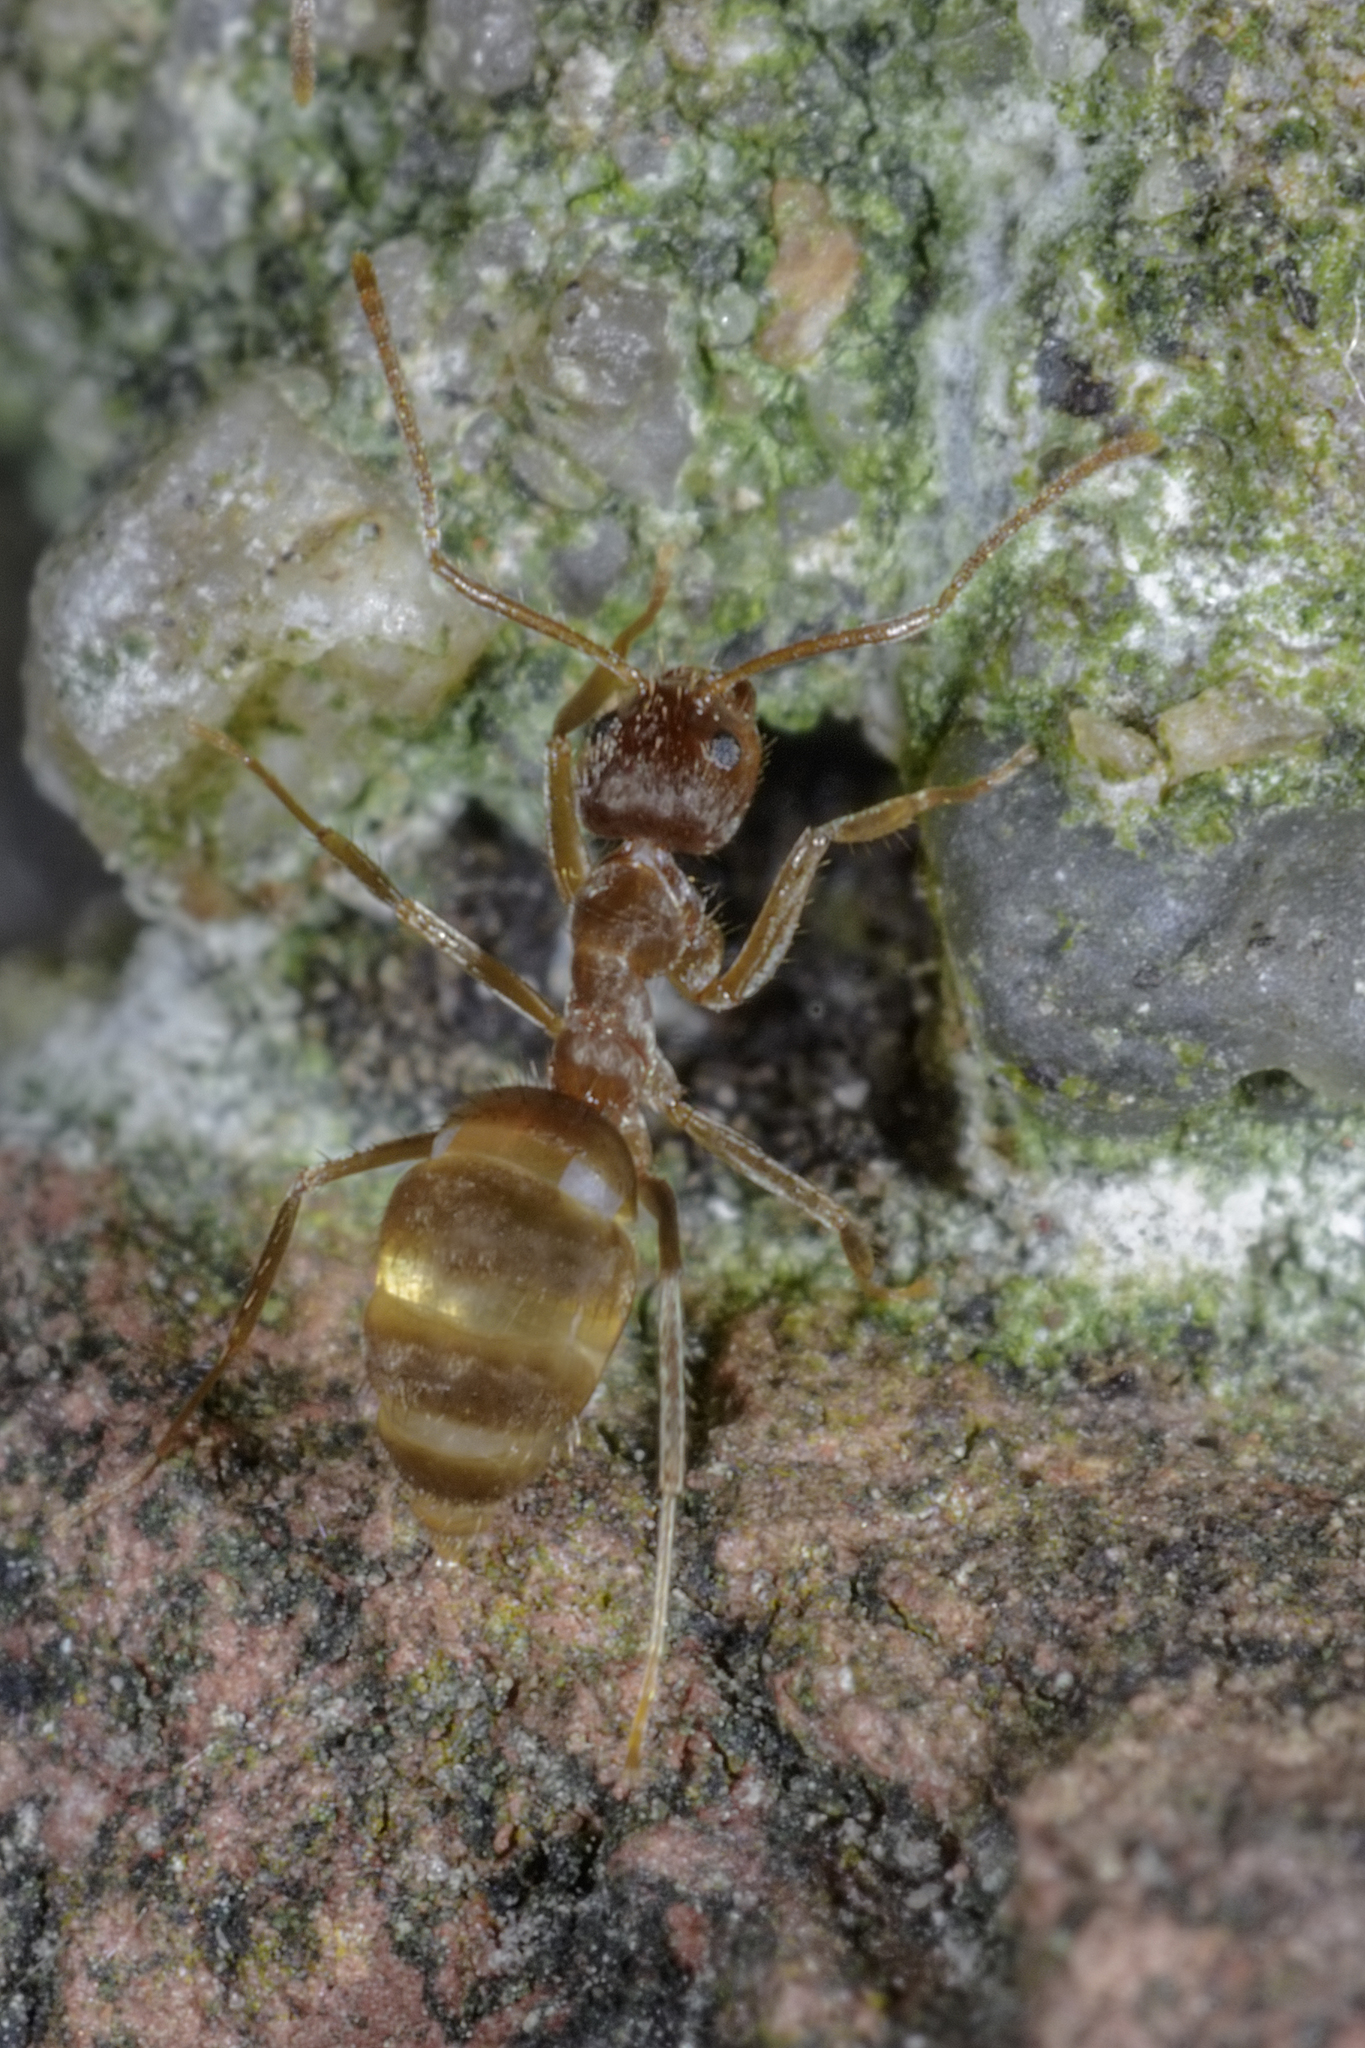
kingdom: Animalia
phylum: Arthropoda
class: Insecta
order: Hymenoptera
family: Formicidae
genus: Paratrechina
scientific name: Paratrechina fulva
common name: Tawny crazy ant
